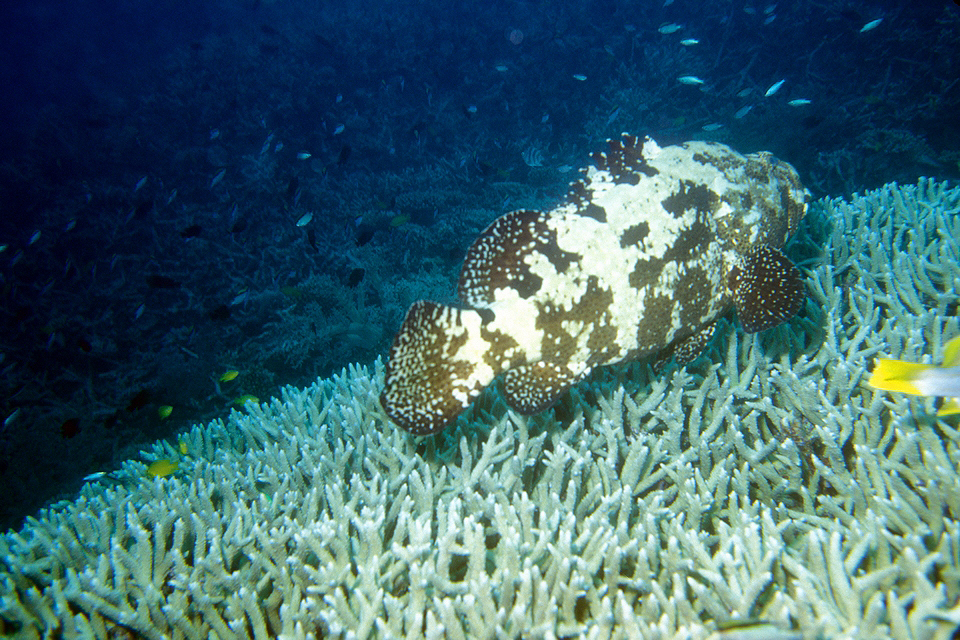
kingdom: Animalia
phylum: Chordata
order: Perciformes
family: Serranidae
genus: Epinephelus
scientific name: Epinephelus fuscoguttatus
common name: Brown-marbled grouper
